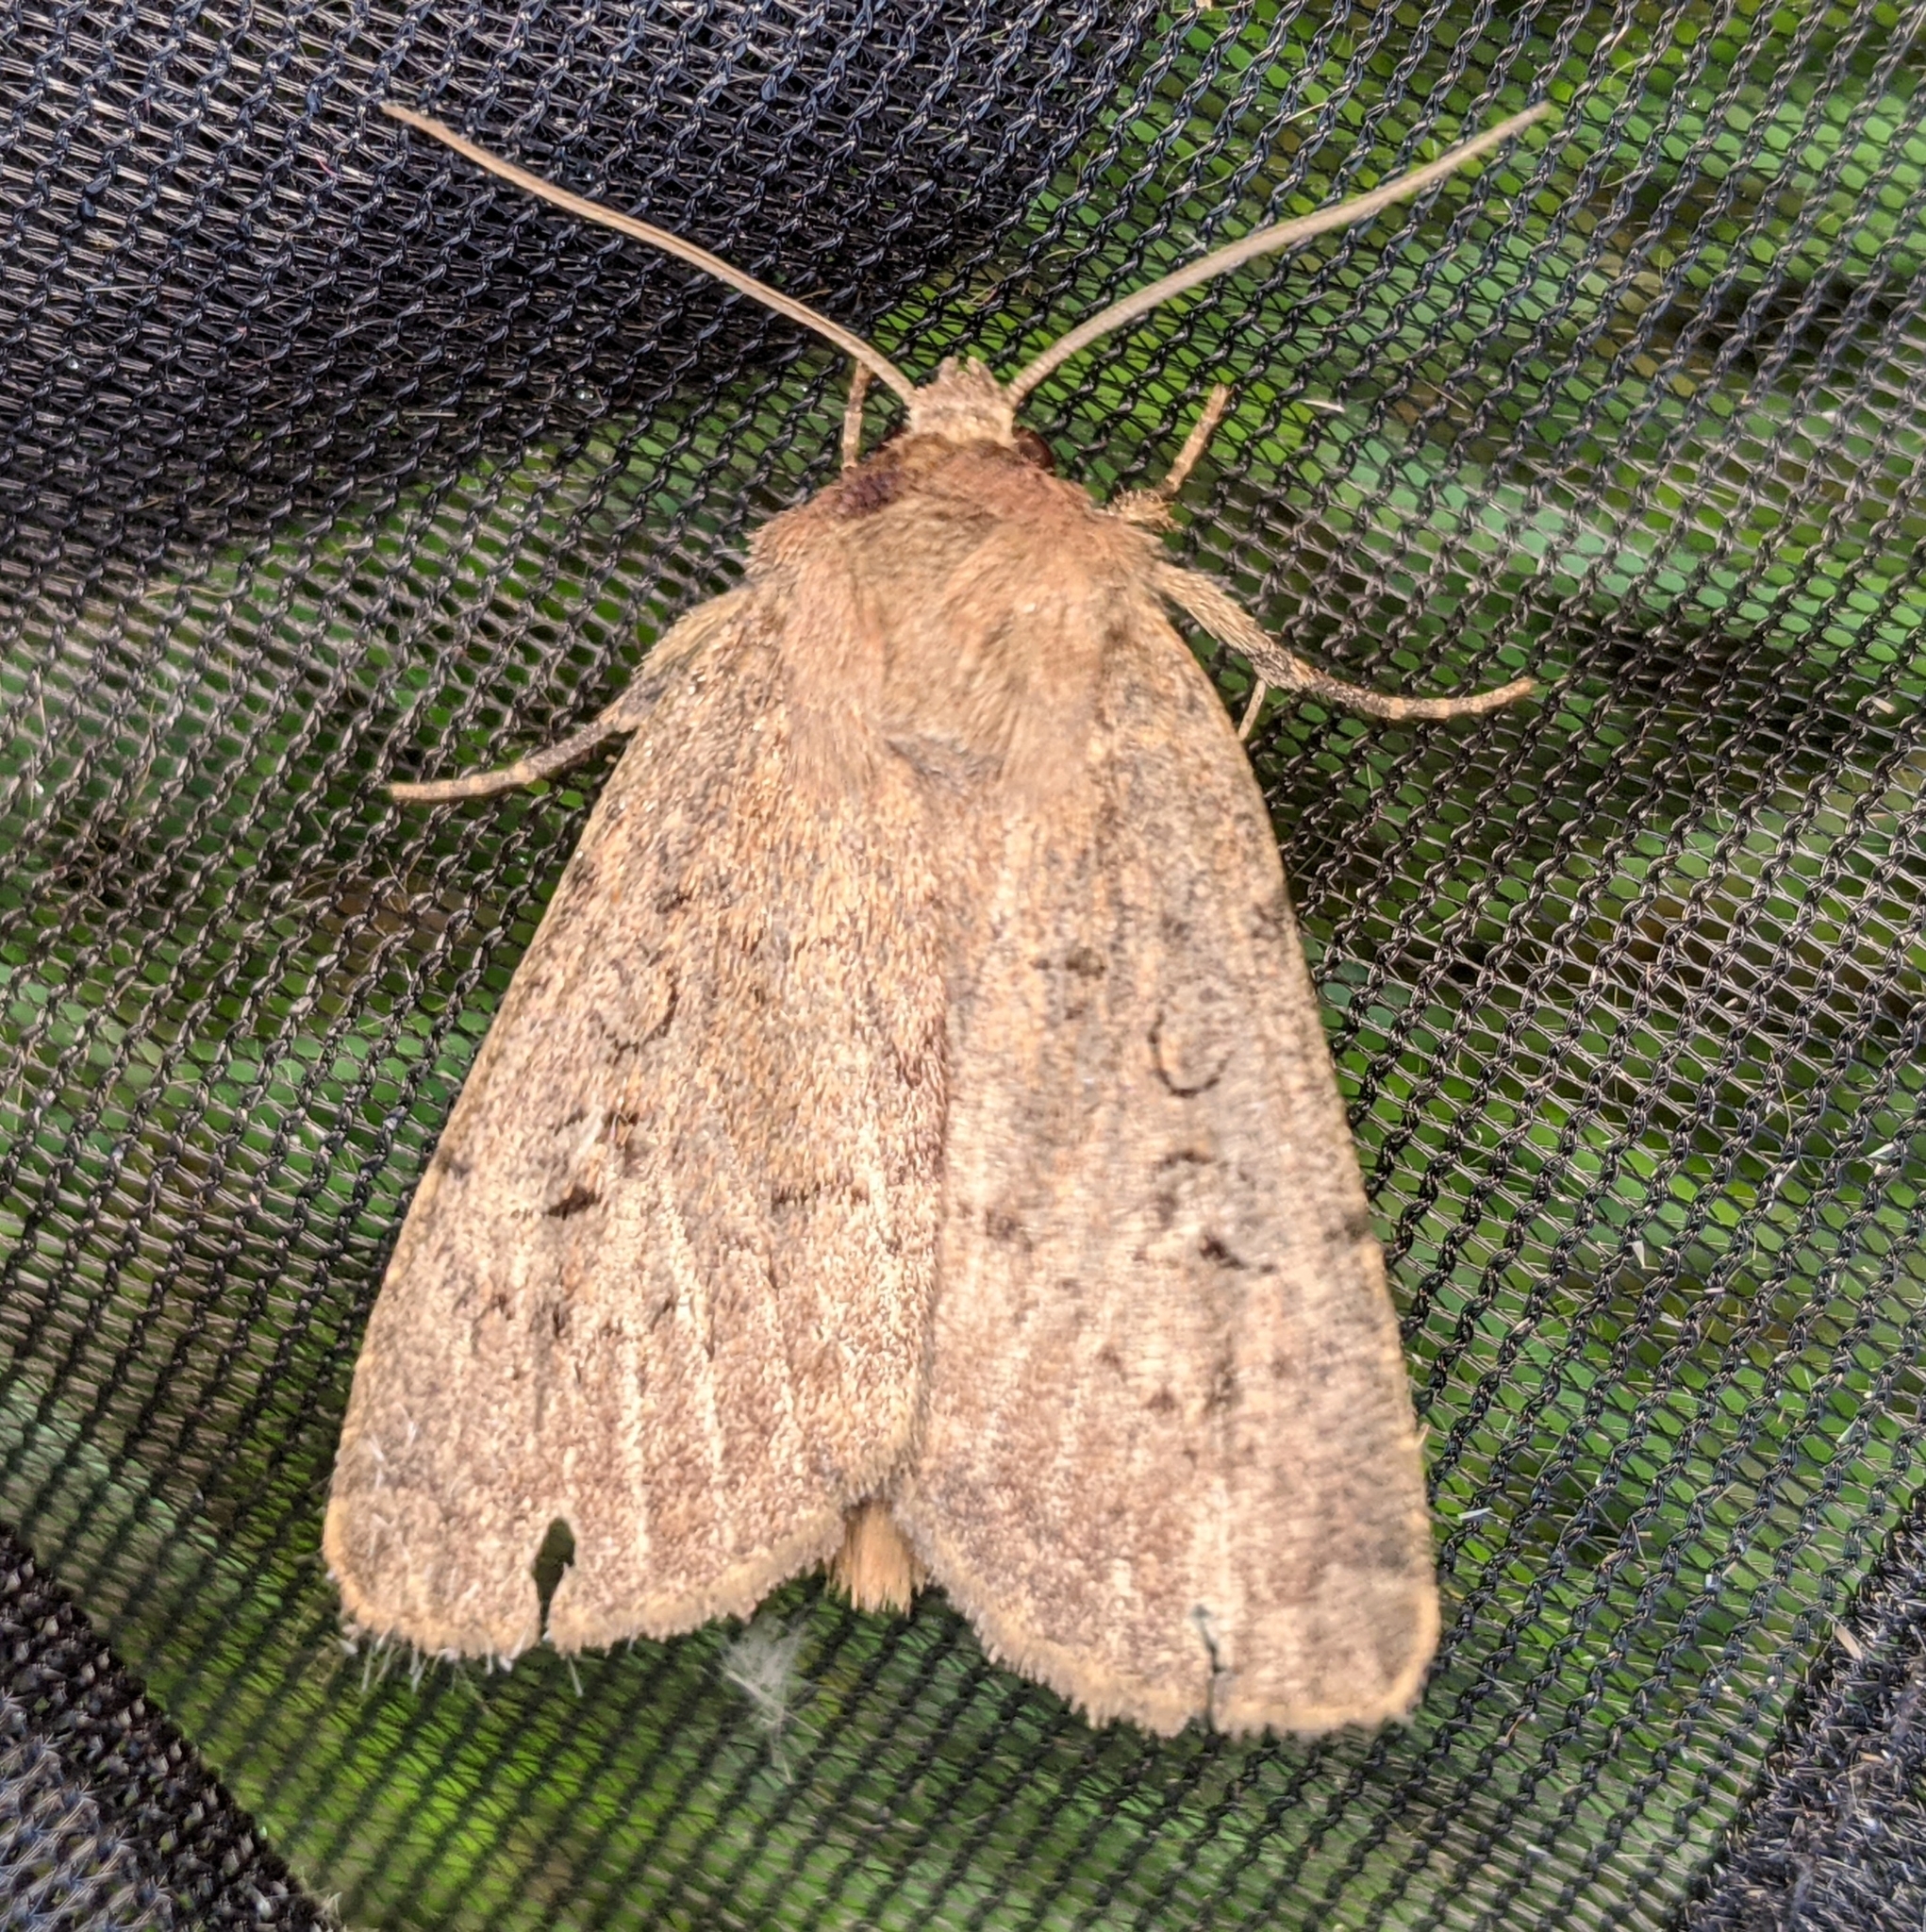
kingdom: Animalia
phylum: Arthropoda
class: Insecta
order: Lepidoptera
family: Noctuidae
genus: Graphiphora
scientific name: Graphiphora augur
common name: Double dart
